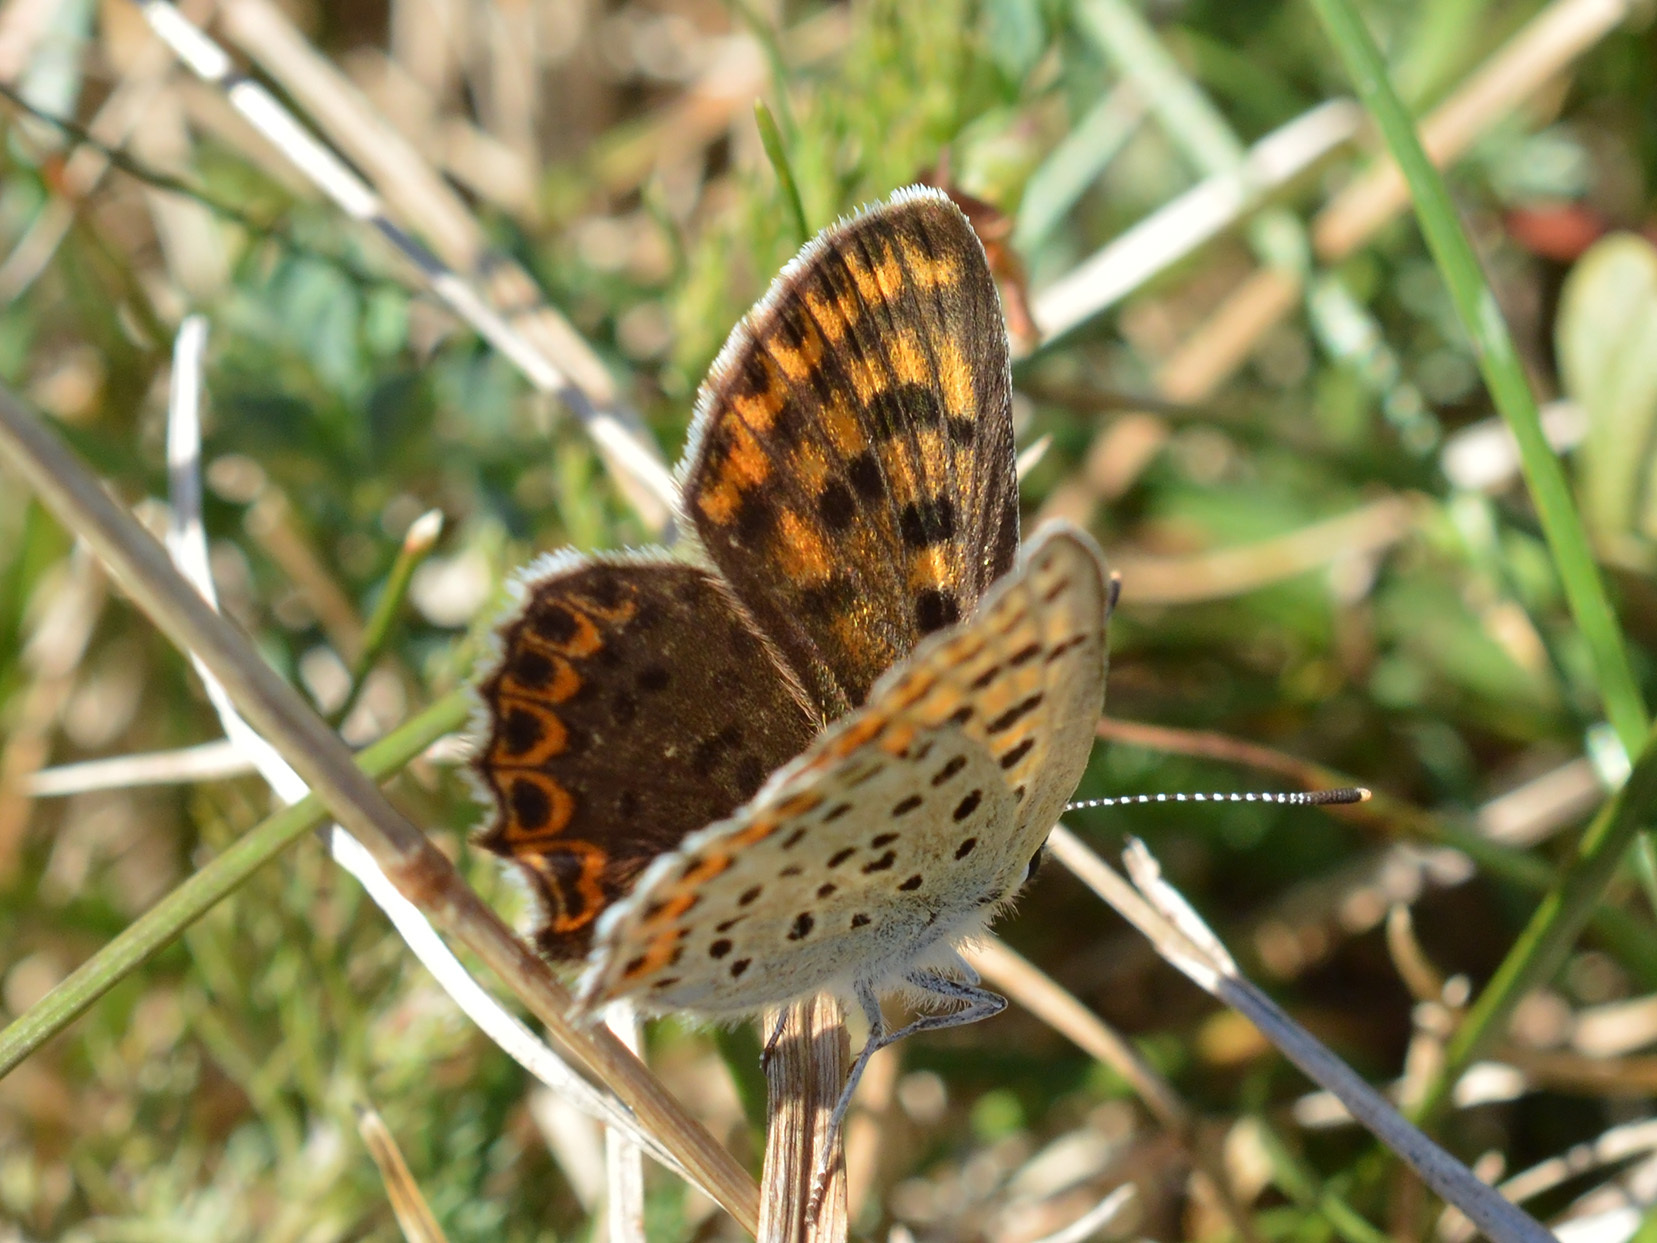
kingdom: Animalia
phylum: Arthropoda
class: Insecta
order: Lepidoptera
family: Lycaenidae
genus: Loweia
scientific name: Loweia tityrus
